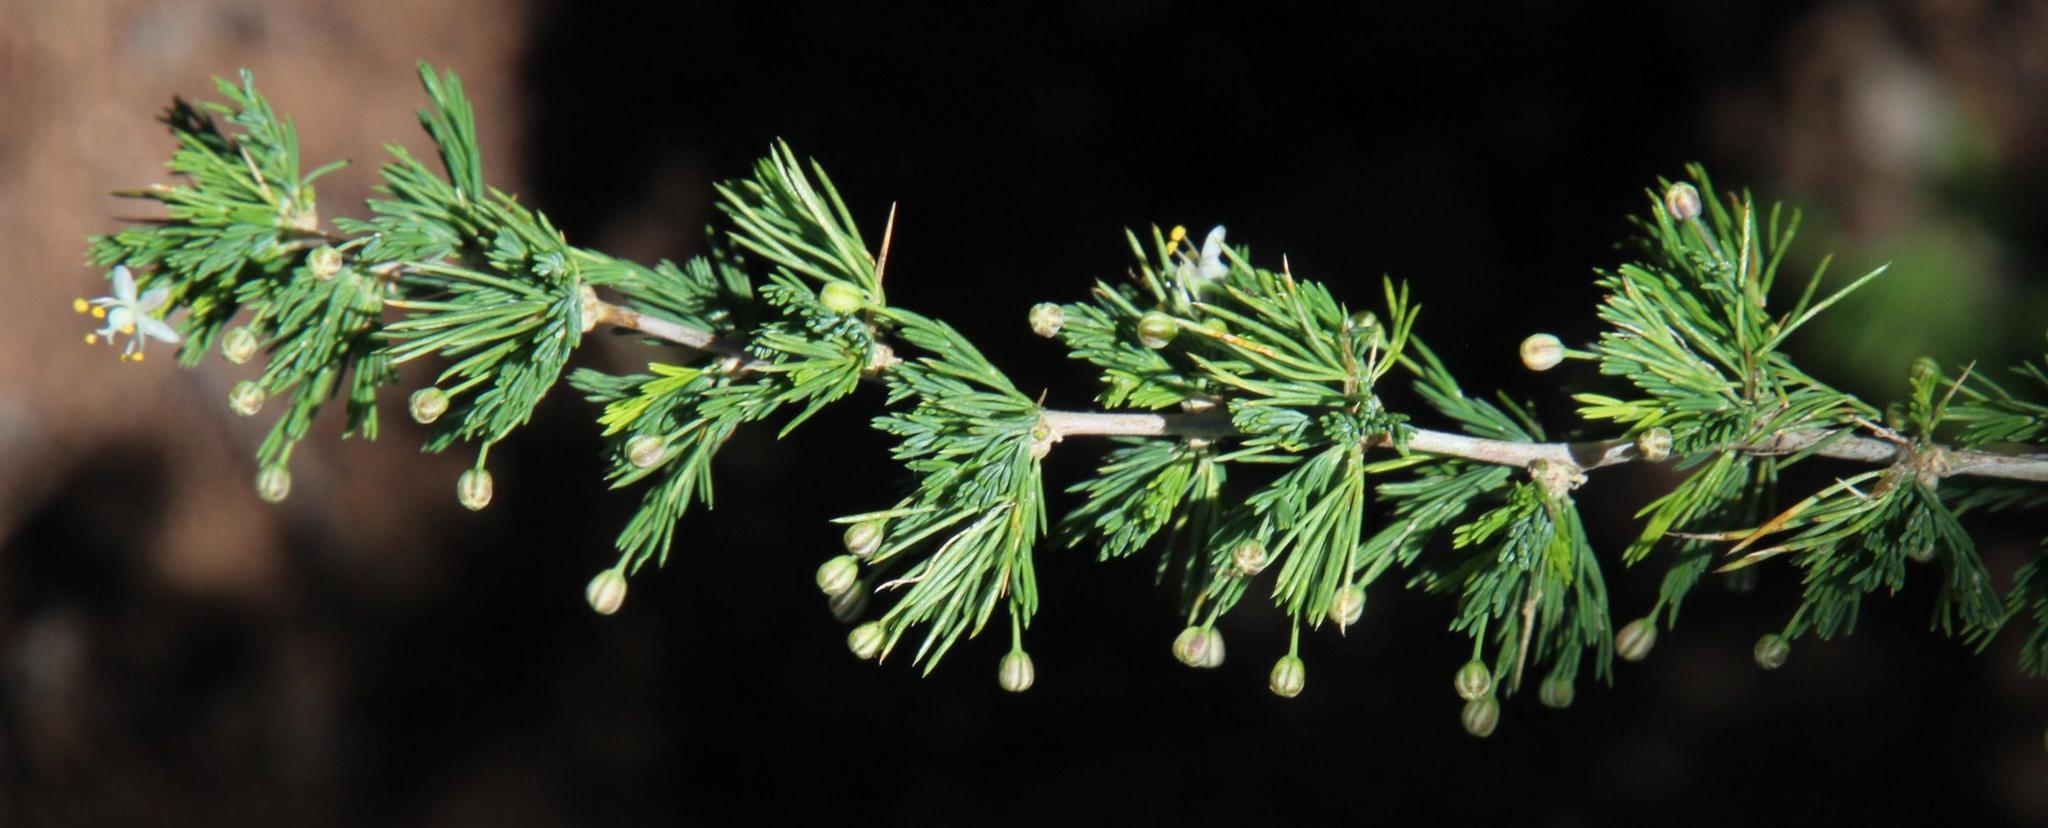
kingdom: Plantae
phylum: Tracheophyta
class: Liliopsida
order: Asparagales
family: Asparagaceae
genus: Asparagus
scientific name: Asparagus suaveolens
